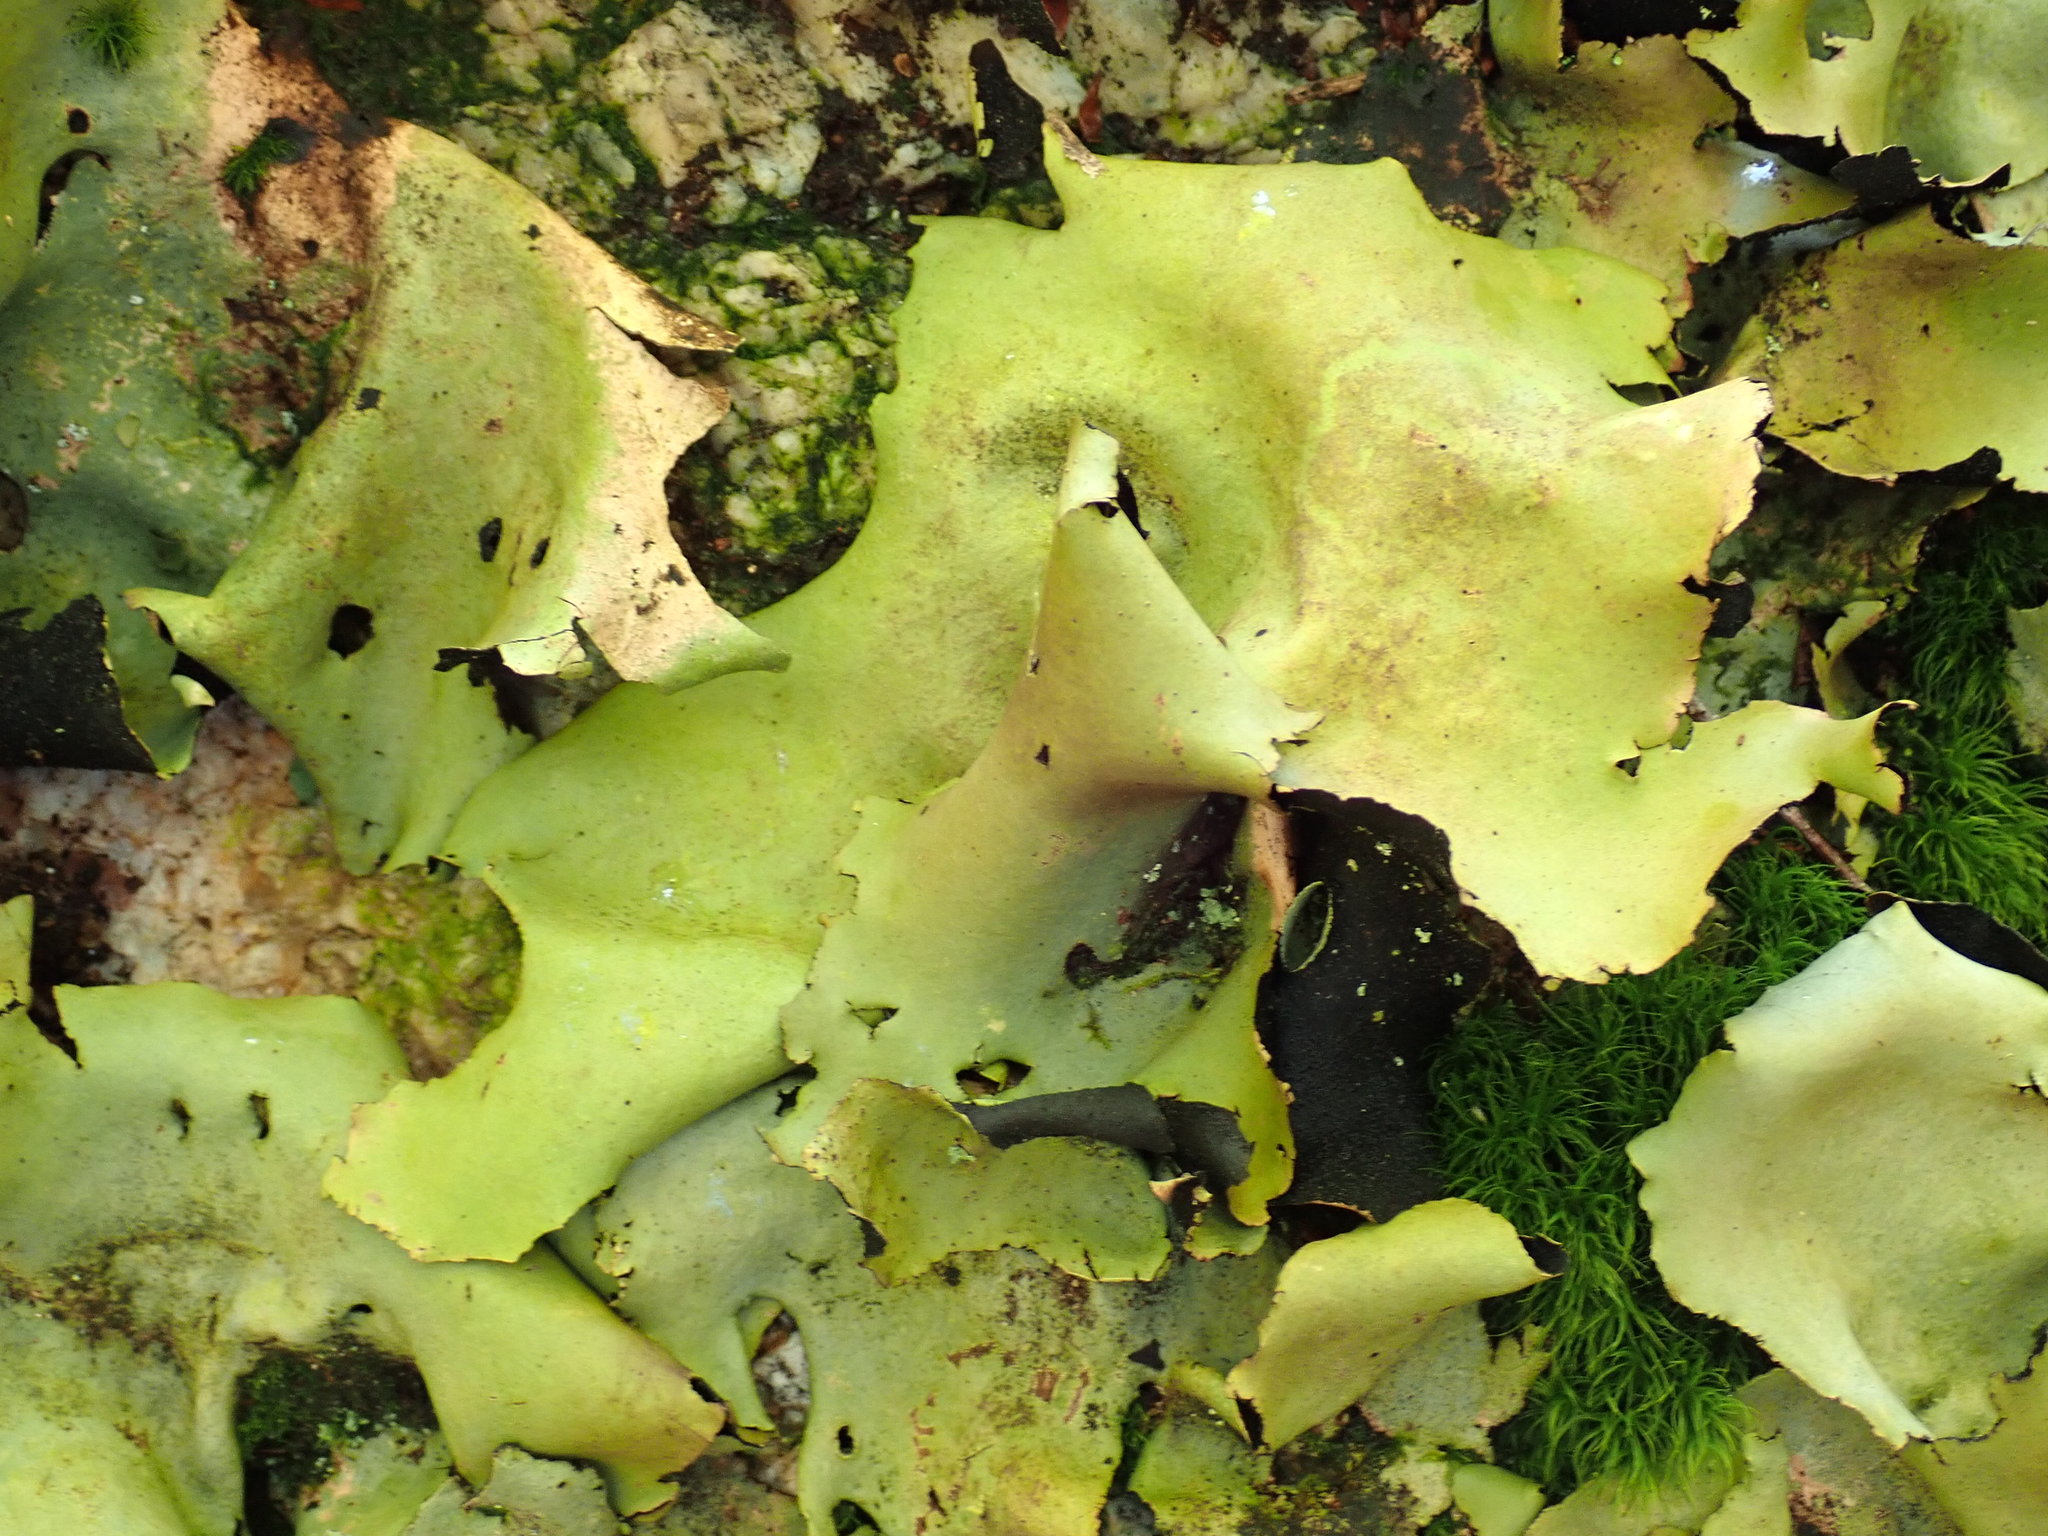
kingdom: Fungi
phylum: Ascomycota
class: Lecanoromycetes
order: Umbilicariales
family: Umbilicariaceae
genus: Umbilicaria
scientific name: Umbilicaria mammulata
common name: Smooth rock tripe
